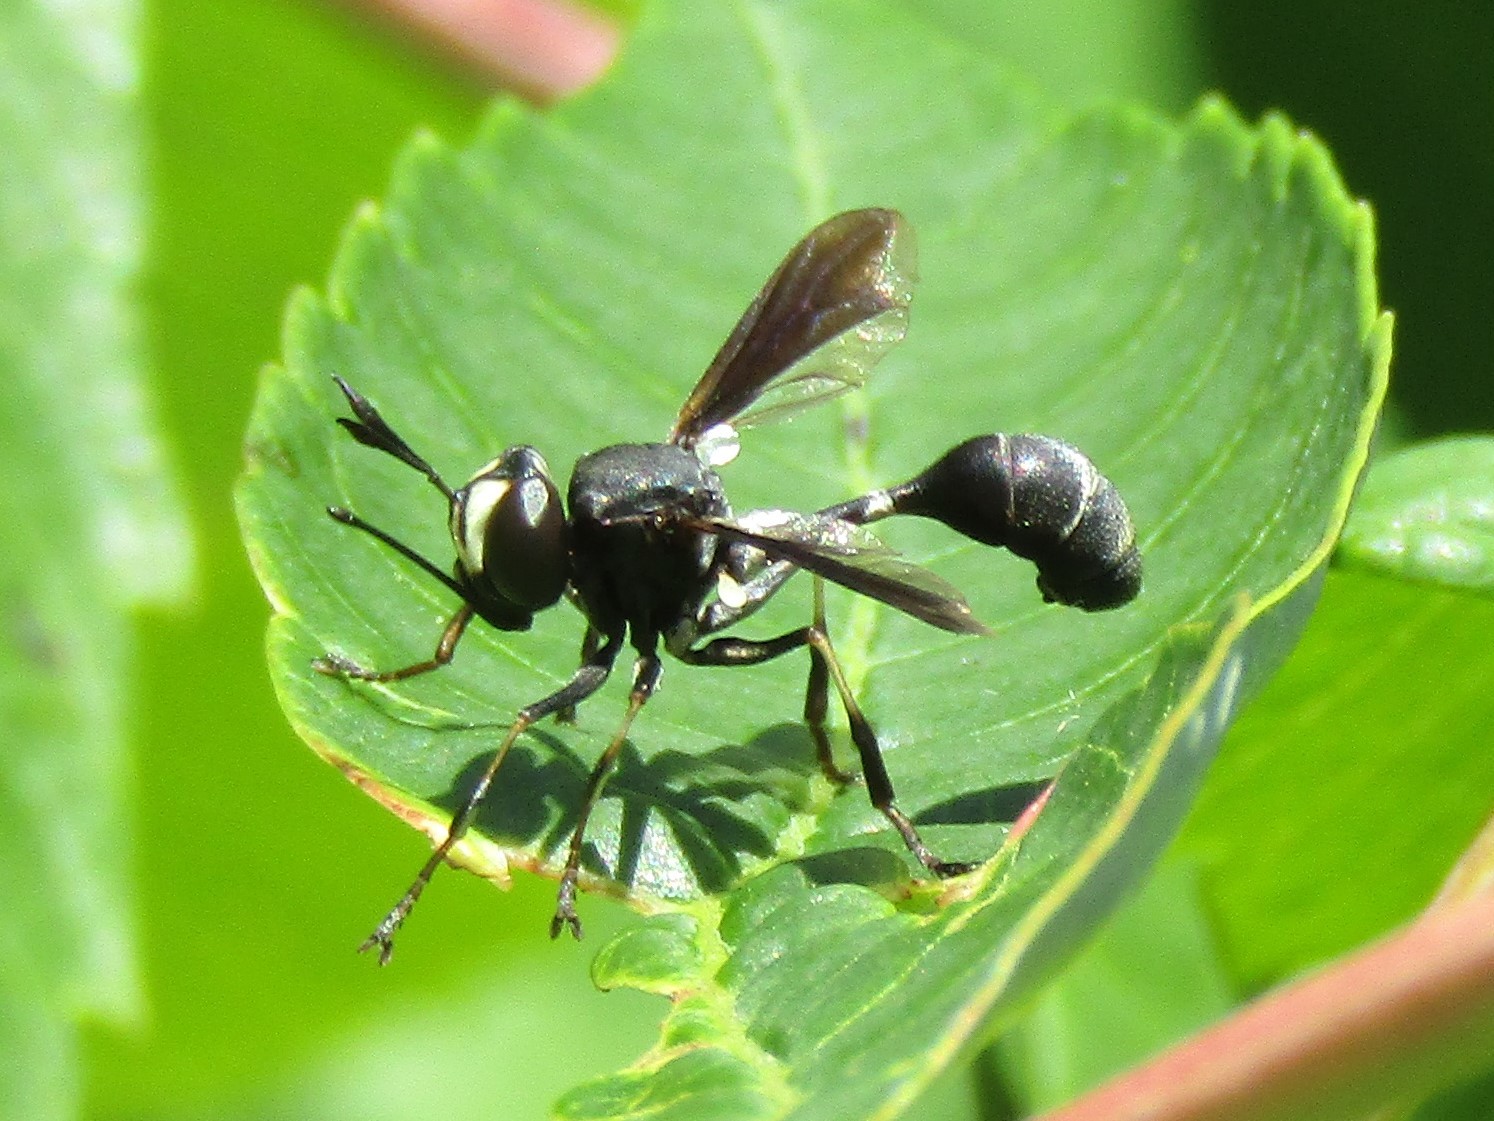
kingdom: Animalia
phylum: Arthropoda
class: Insecta
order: Diptera
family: Conopidae
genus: Physocephala
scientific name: Physocephala tibialis
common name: Common eastern physocephala
